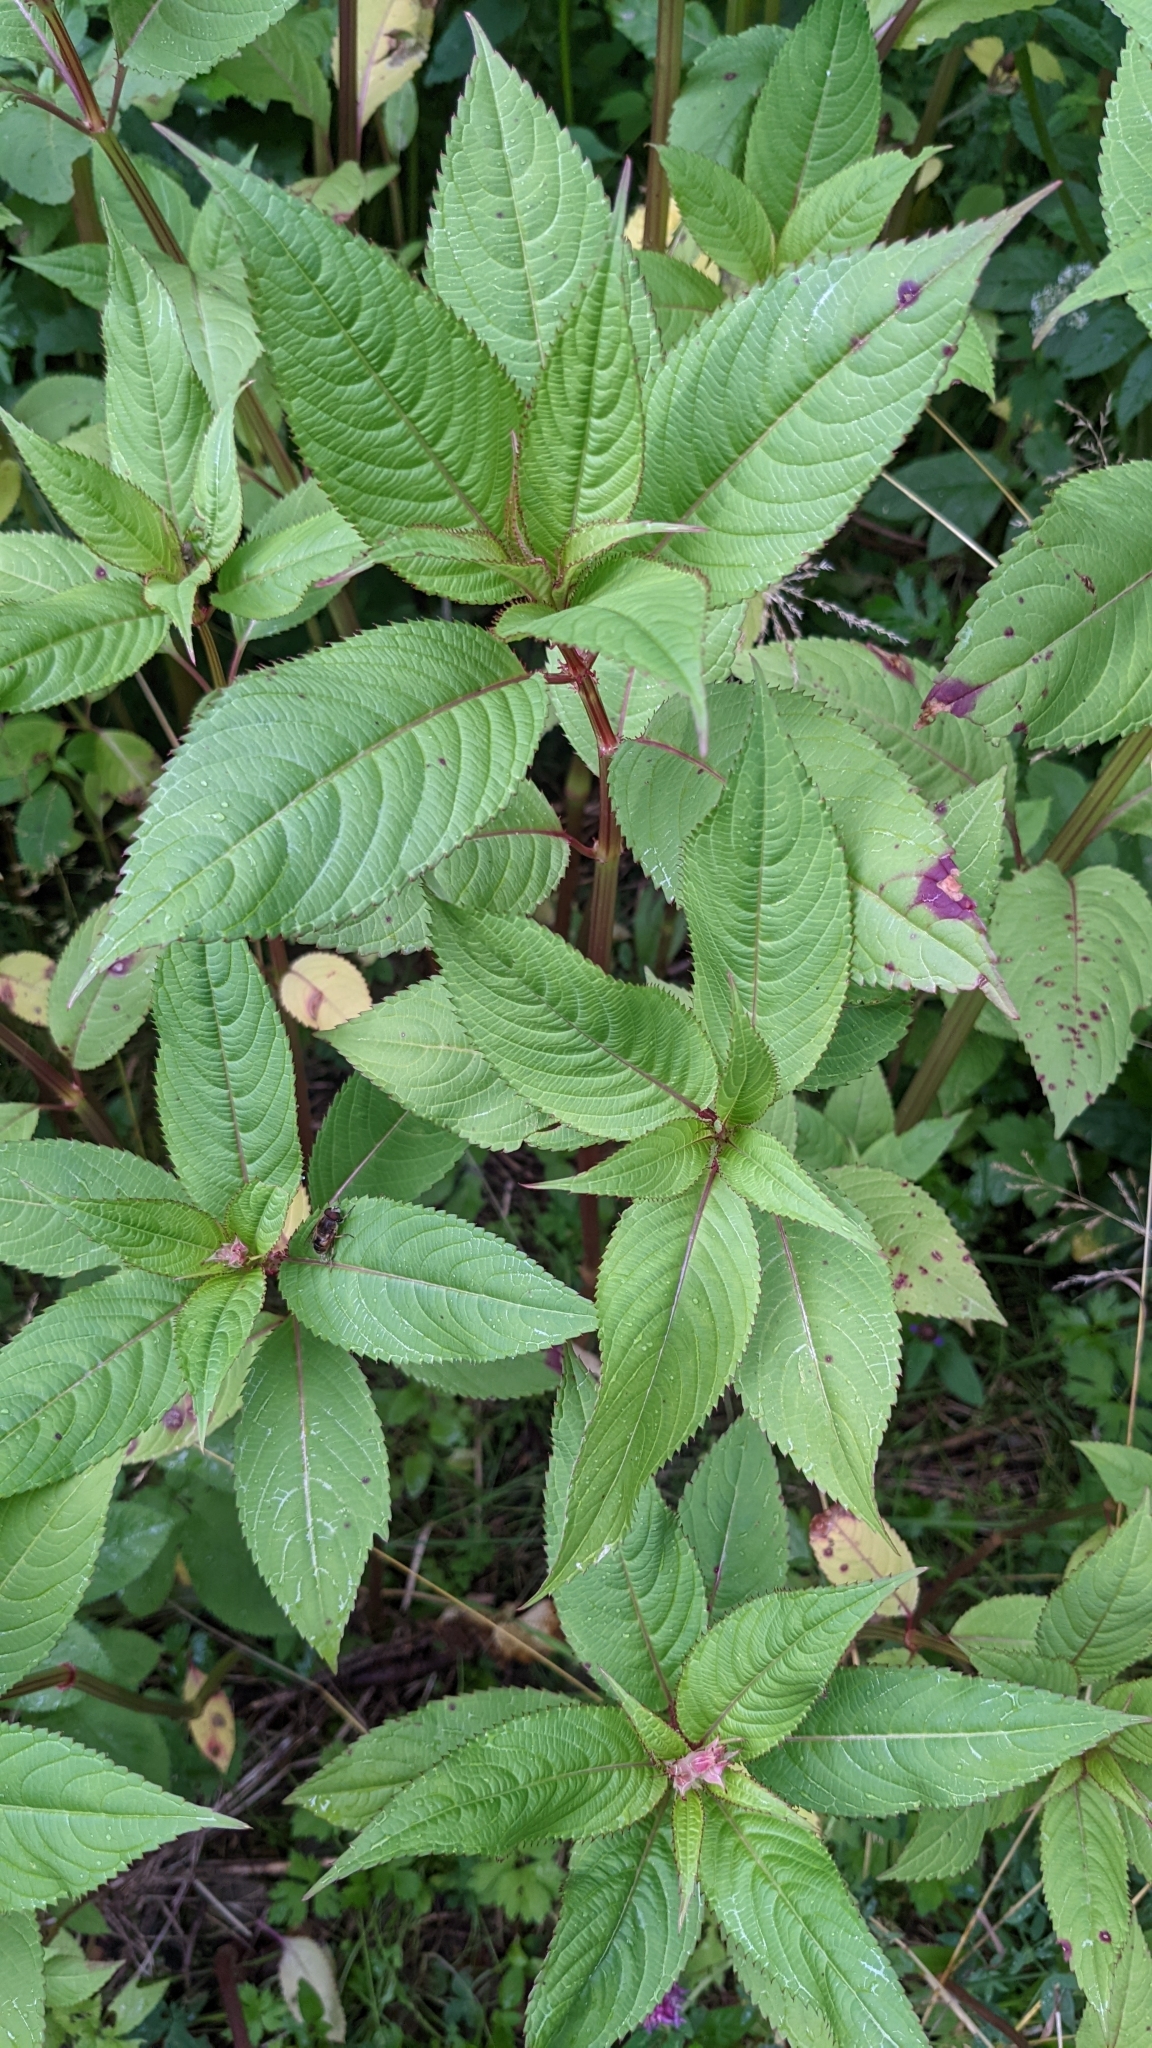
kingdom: Plantae
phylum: Tracheophyta
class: Magnoliopsida
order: Ericales
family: Balsaminaceae
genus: Impatiens
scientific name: Impatiens glandulifera
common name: Himalayan balsam
